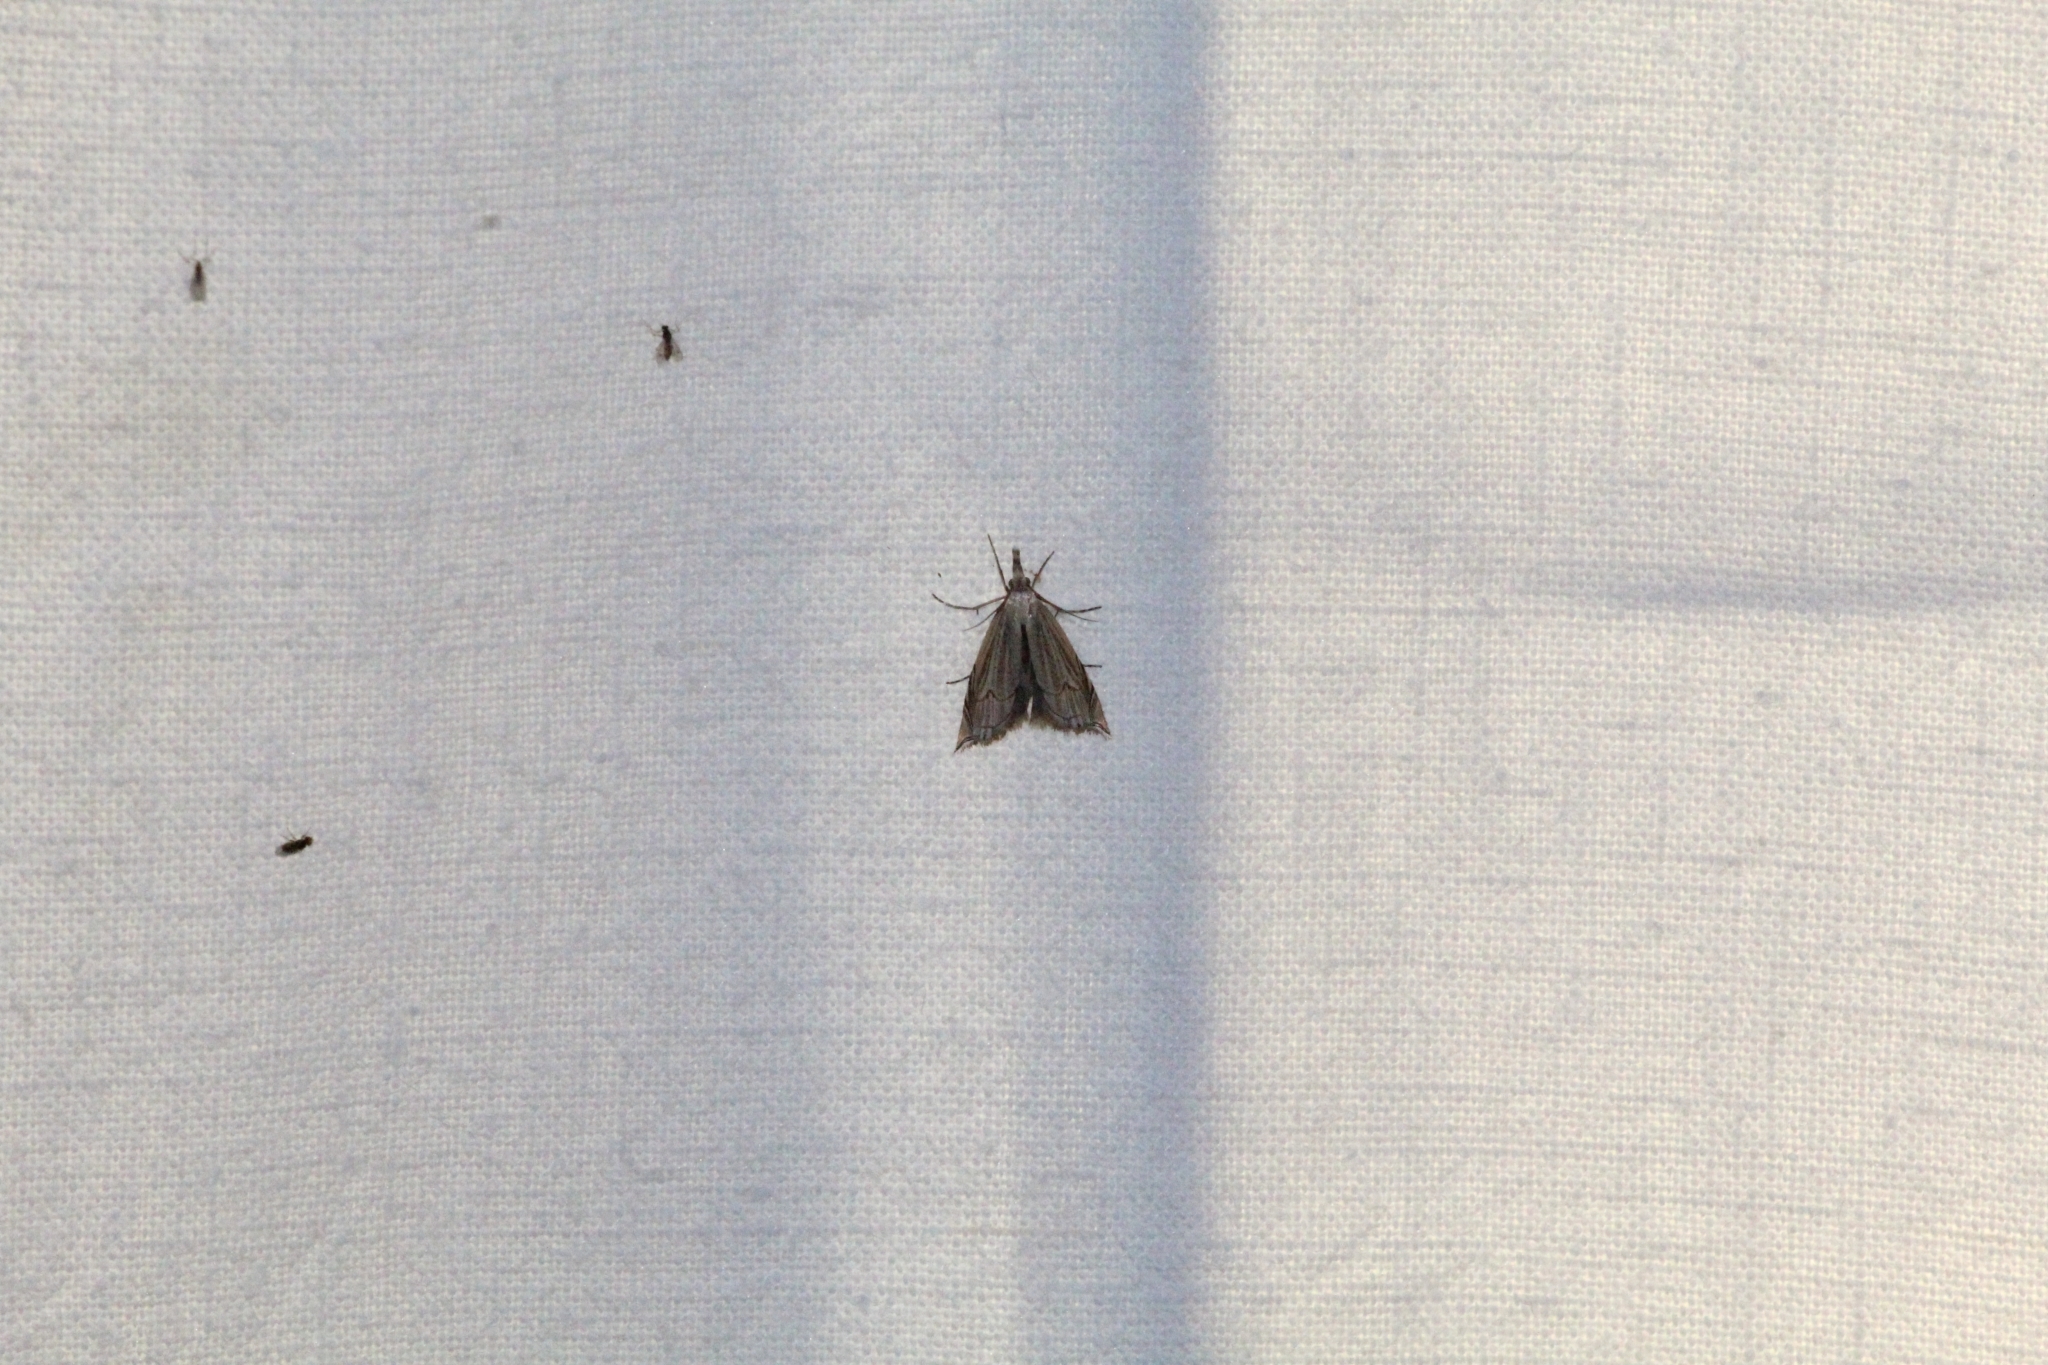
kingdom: Animalia
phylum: Arthropoda
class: Insecta
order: Lepidoptera
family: Crambidae
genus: Metacrambus
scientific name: Metacrambus carectellus
